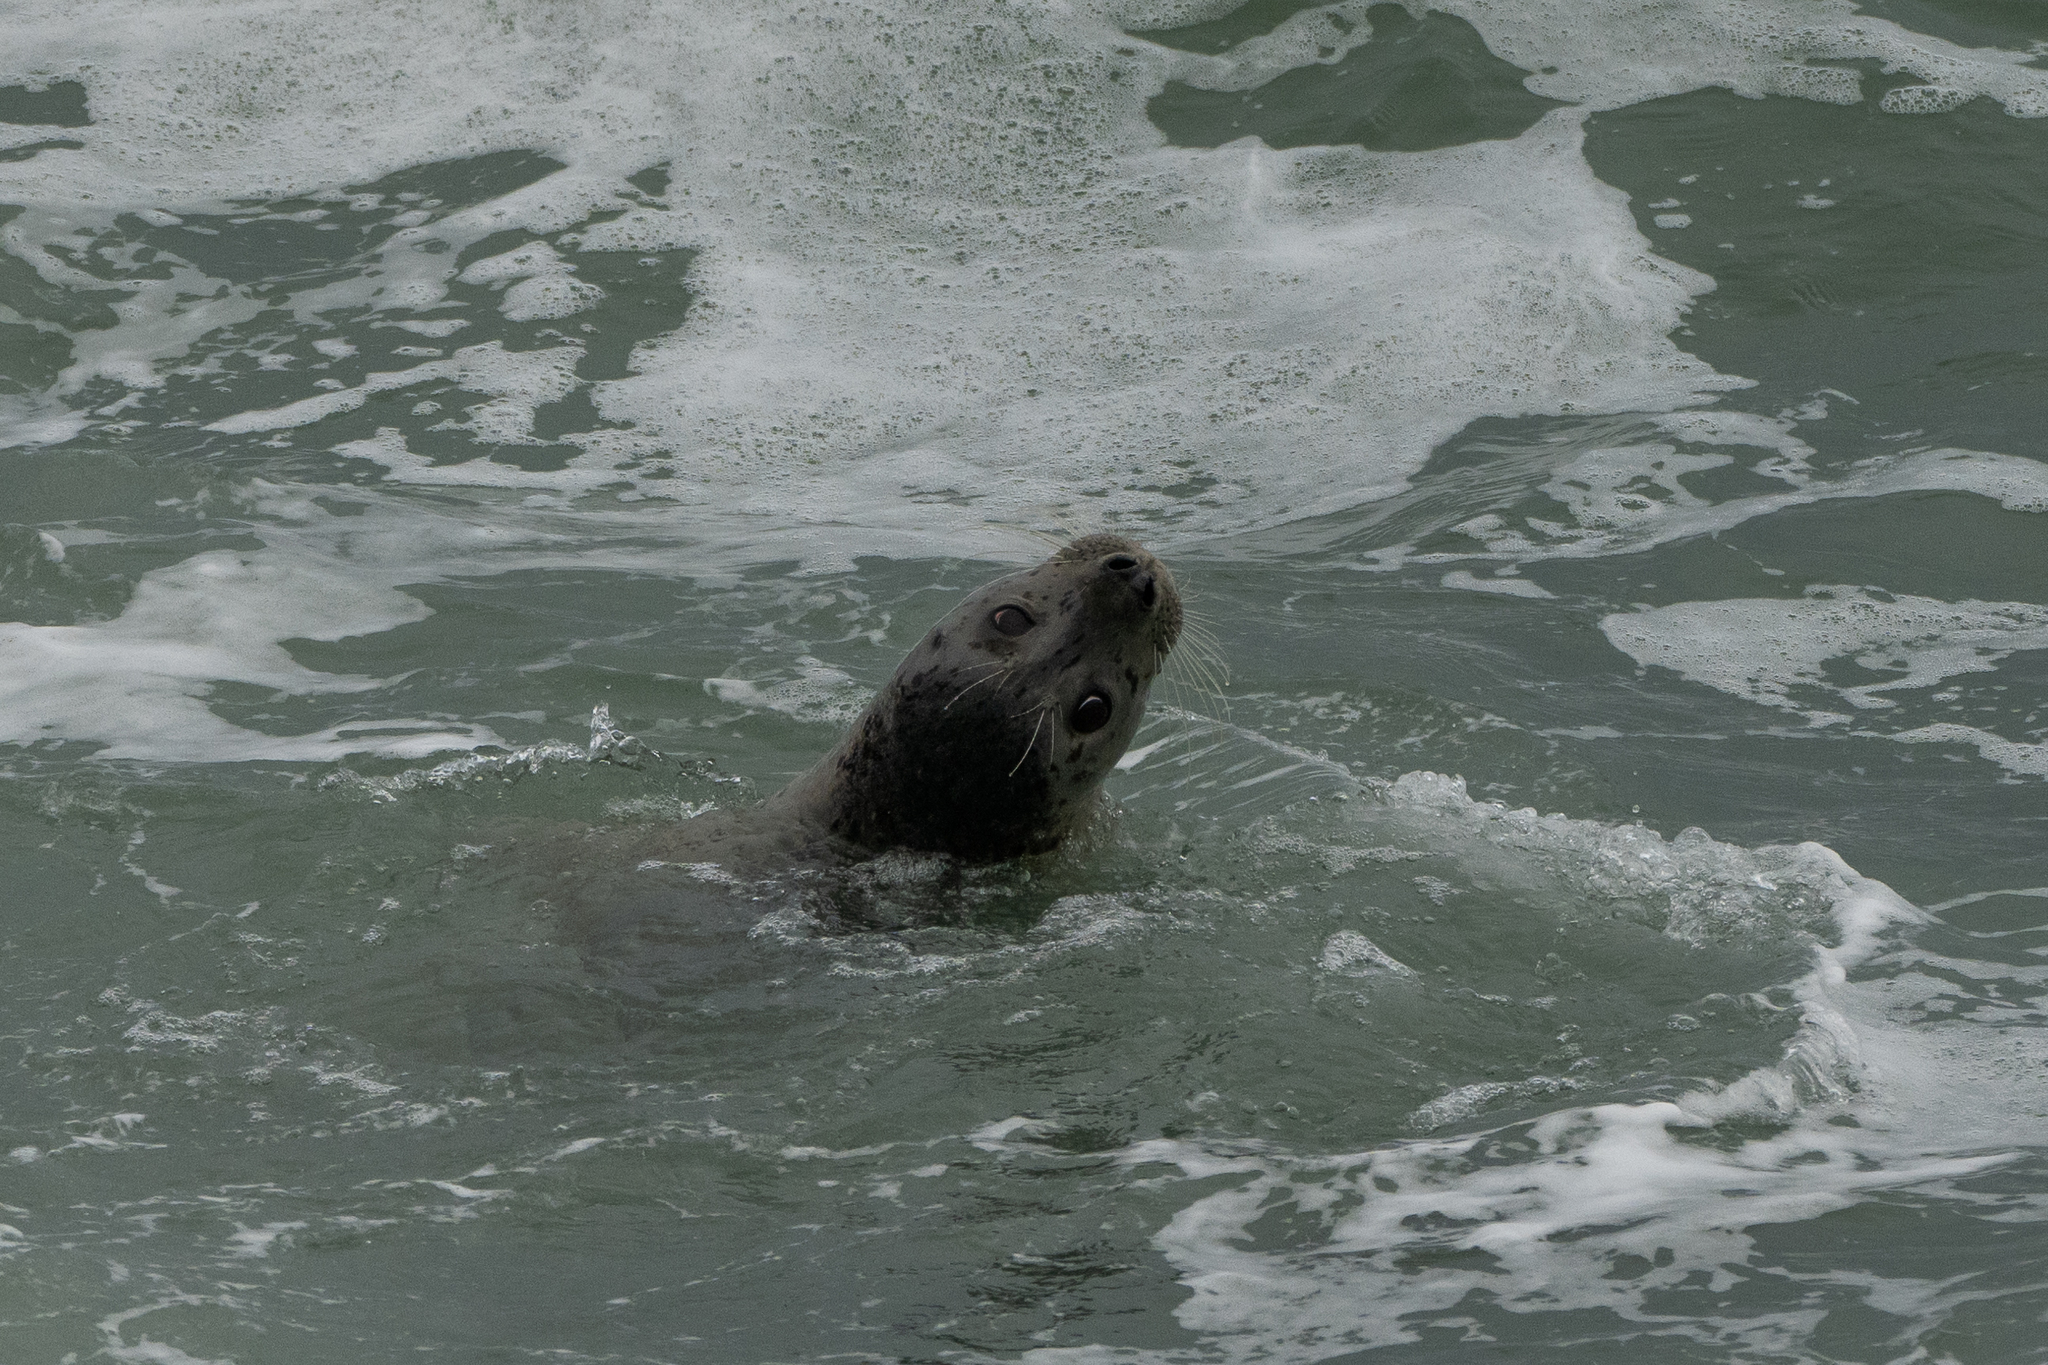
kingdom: Animalia
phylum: Chordata
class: Mammalia
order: Carnivora
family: Phocidae
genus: Phoca
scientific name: Phoca vitulina
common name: Harbor seal
